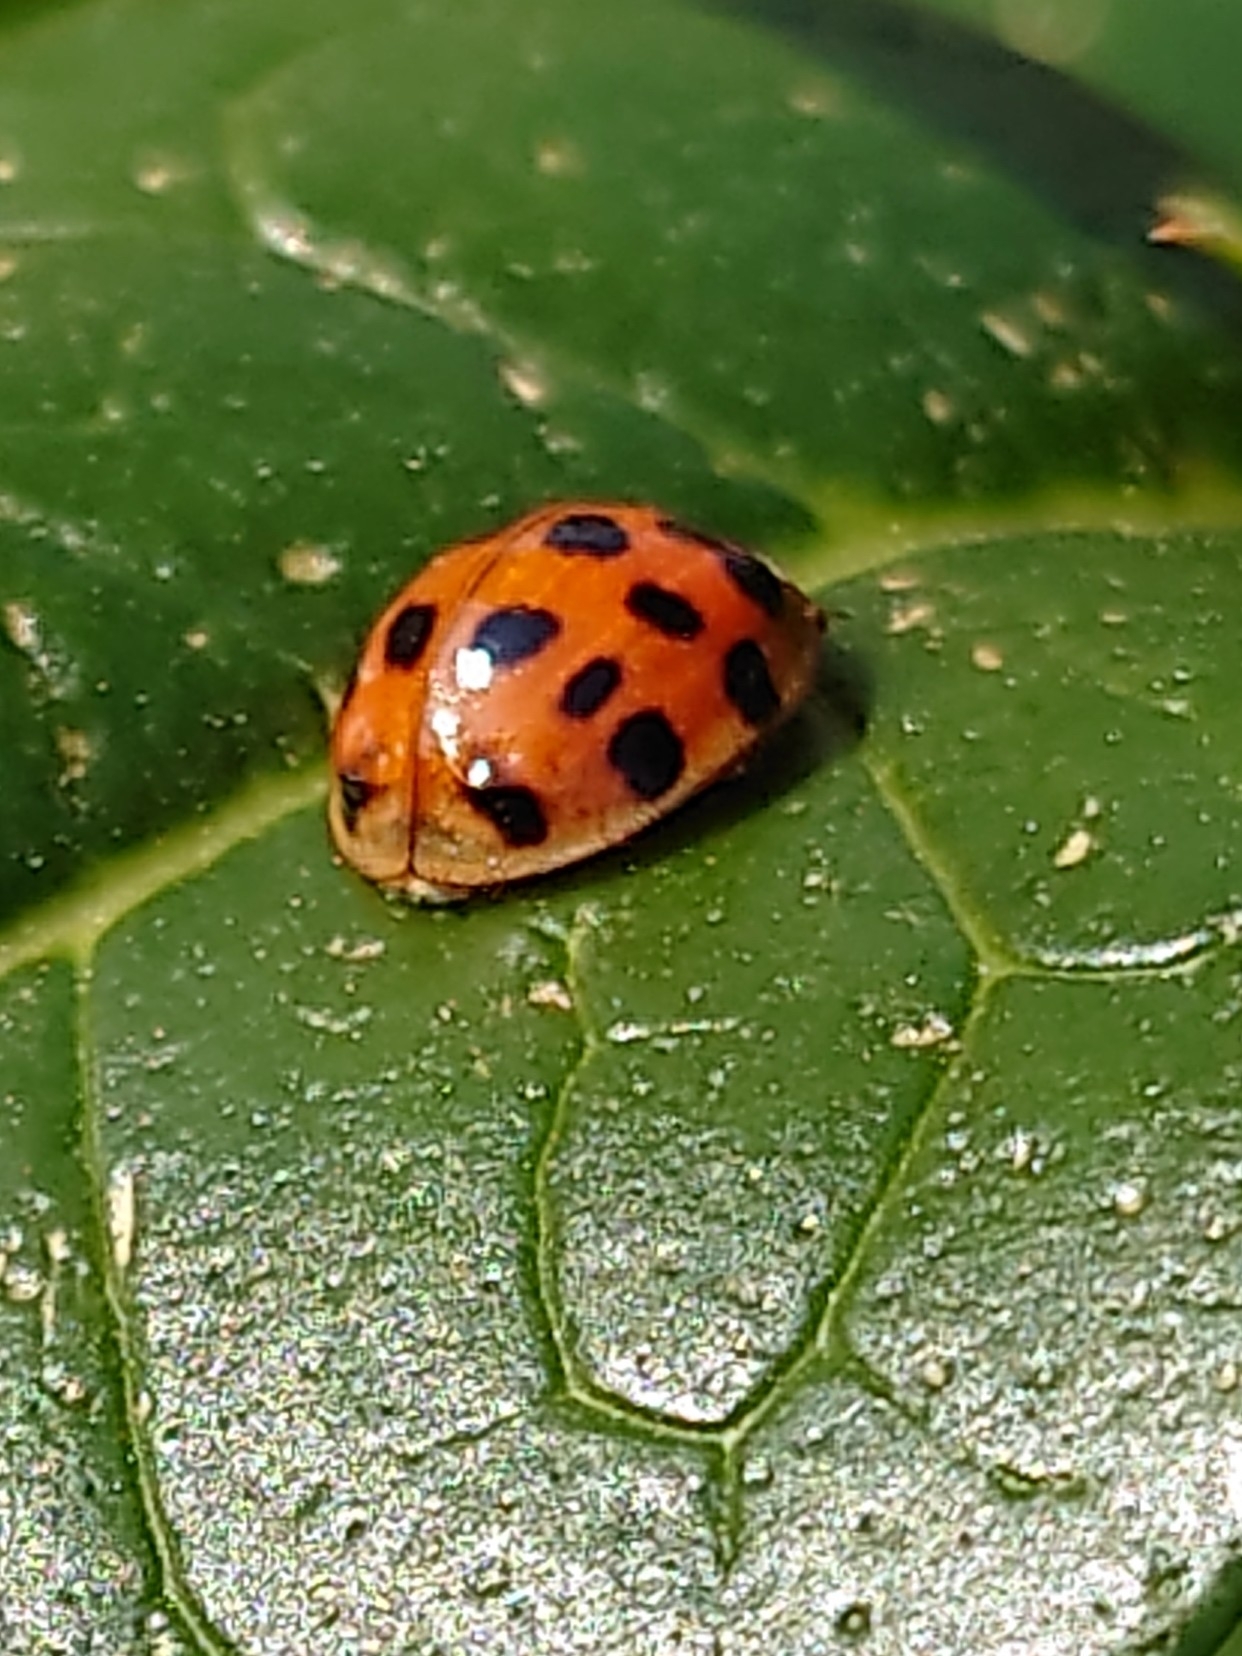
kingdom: Animalia
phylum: Arthropoda
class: Insecta
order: Coleoptera
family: Coccinellidae
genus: Harmonia
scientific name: Harmonia axyridis
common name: Harlequin ladybird
